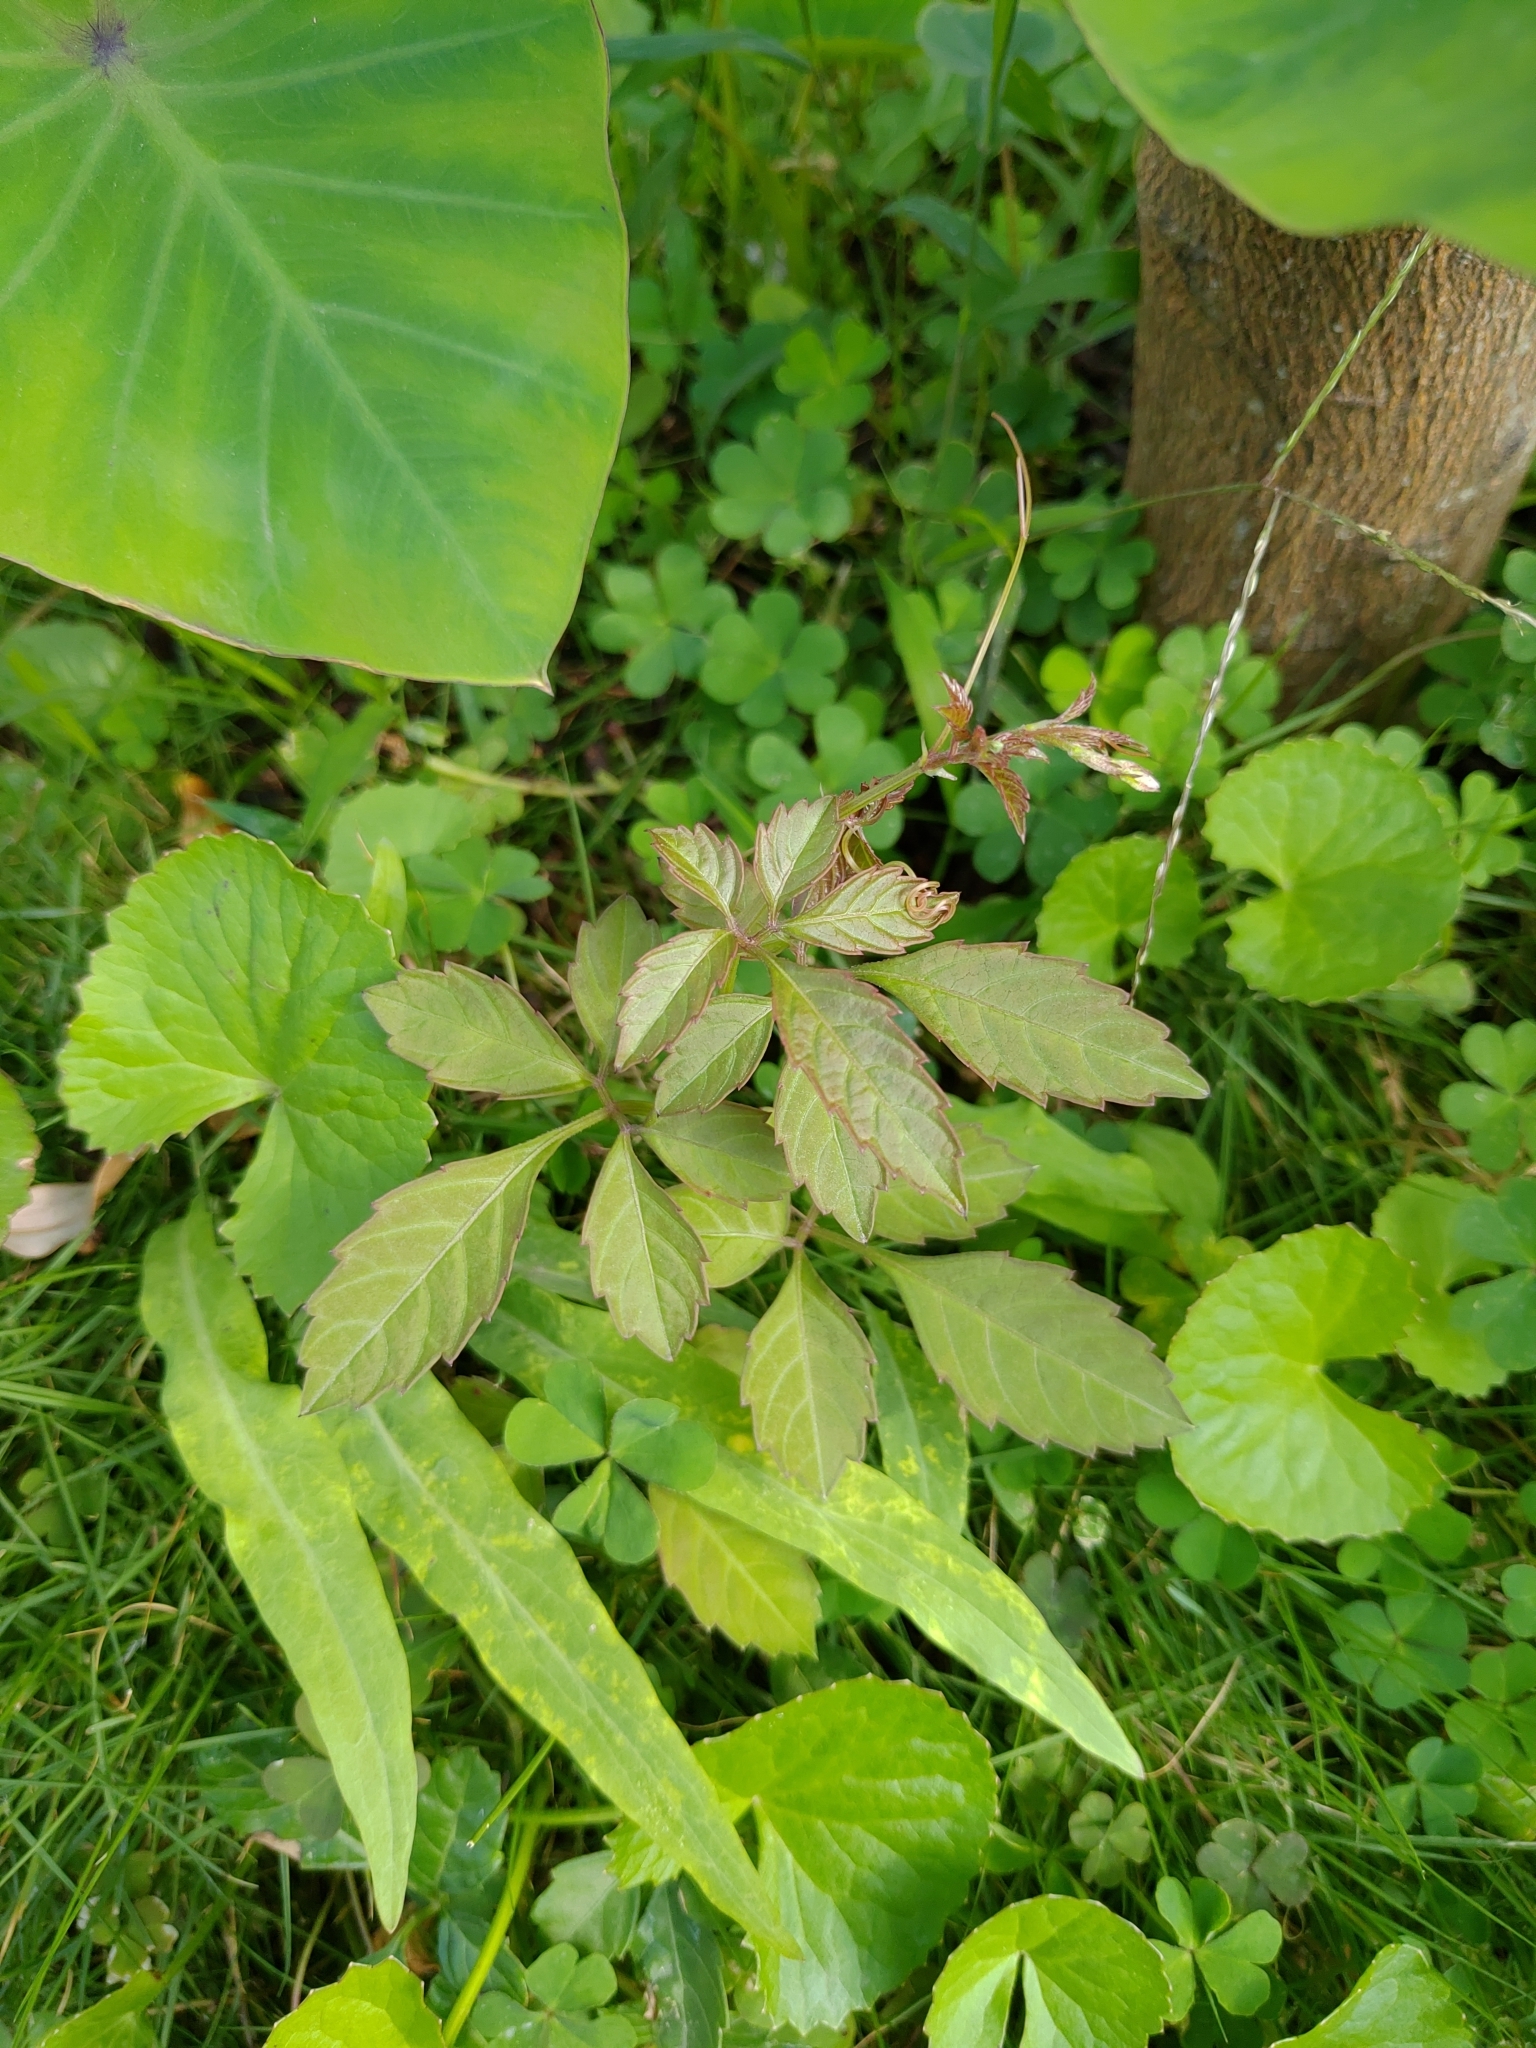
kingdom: Plantae
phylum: Tracheophyta
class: Magnoliopsida
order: Vitales
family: Vitaceae
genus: Causonis
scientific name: Causonis japonica
